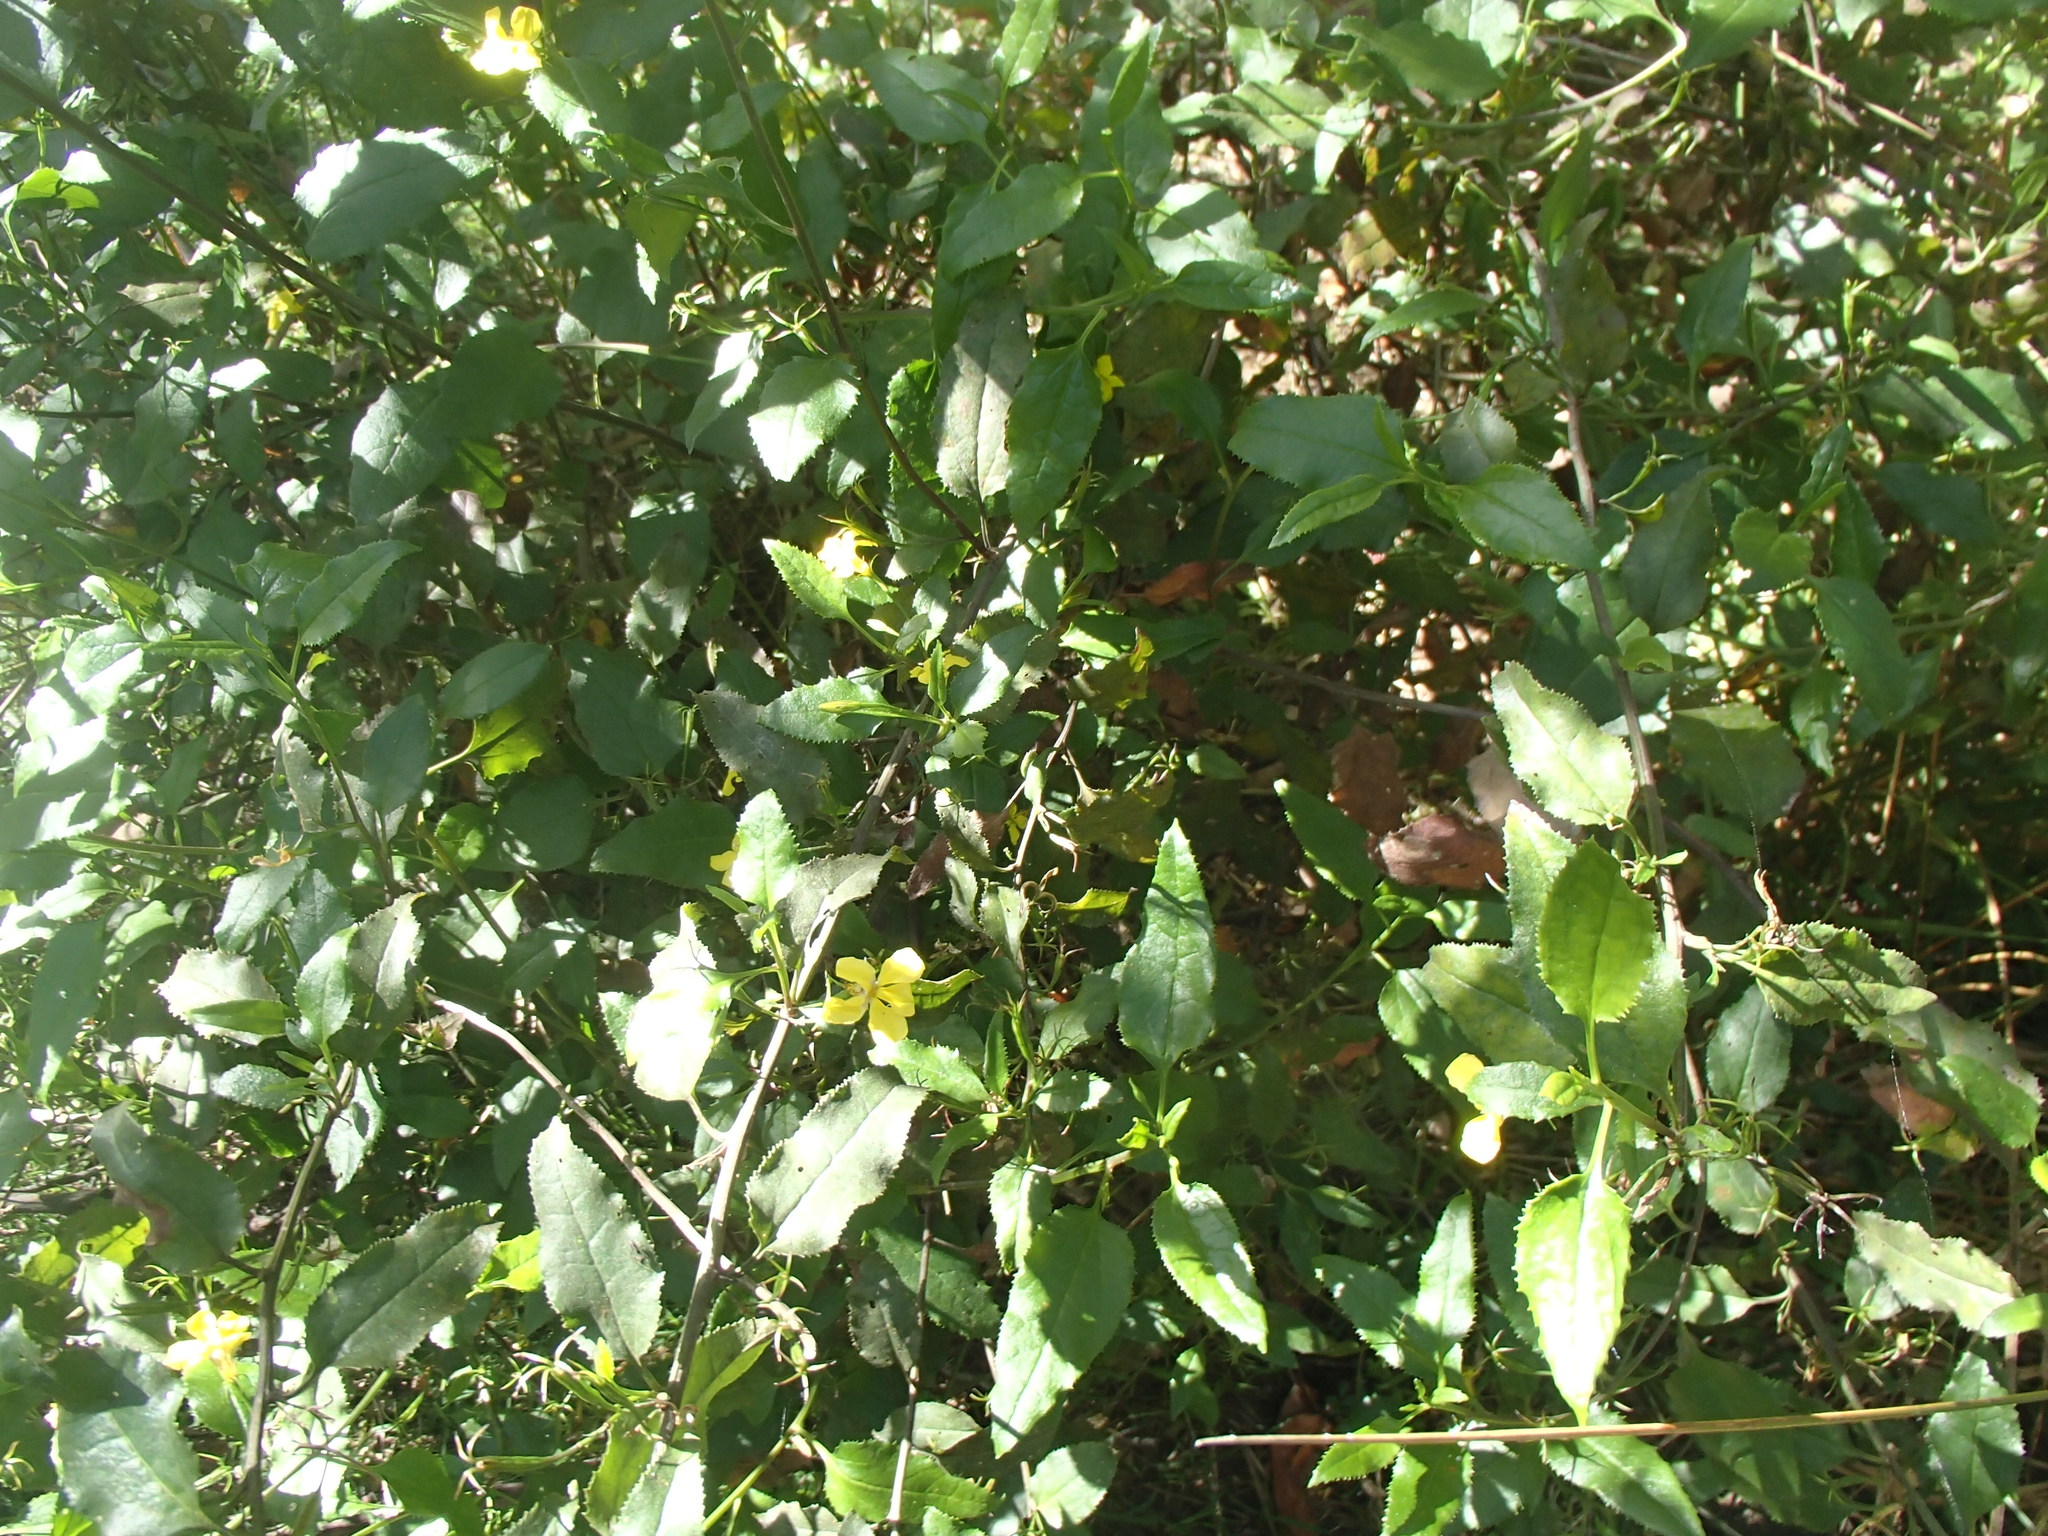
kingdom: Plantae
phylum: Tracheophyta
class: Magnoliopsida
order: Asterales
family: Goodeniaceae
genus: Goodenia
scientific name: Goodenia ovata
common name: Hop goodenia
